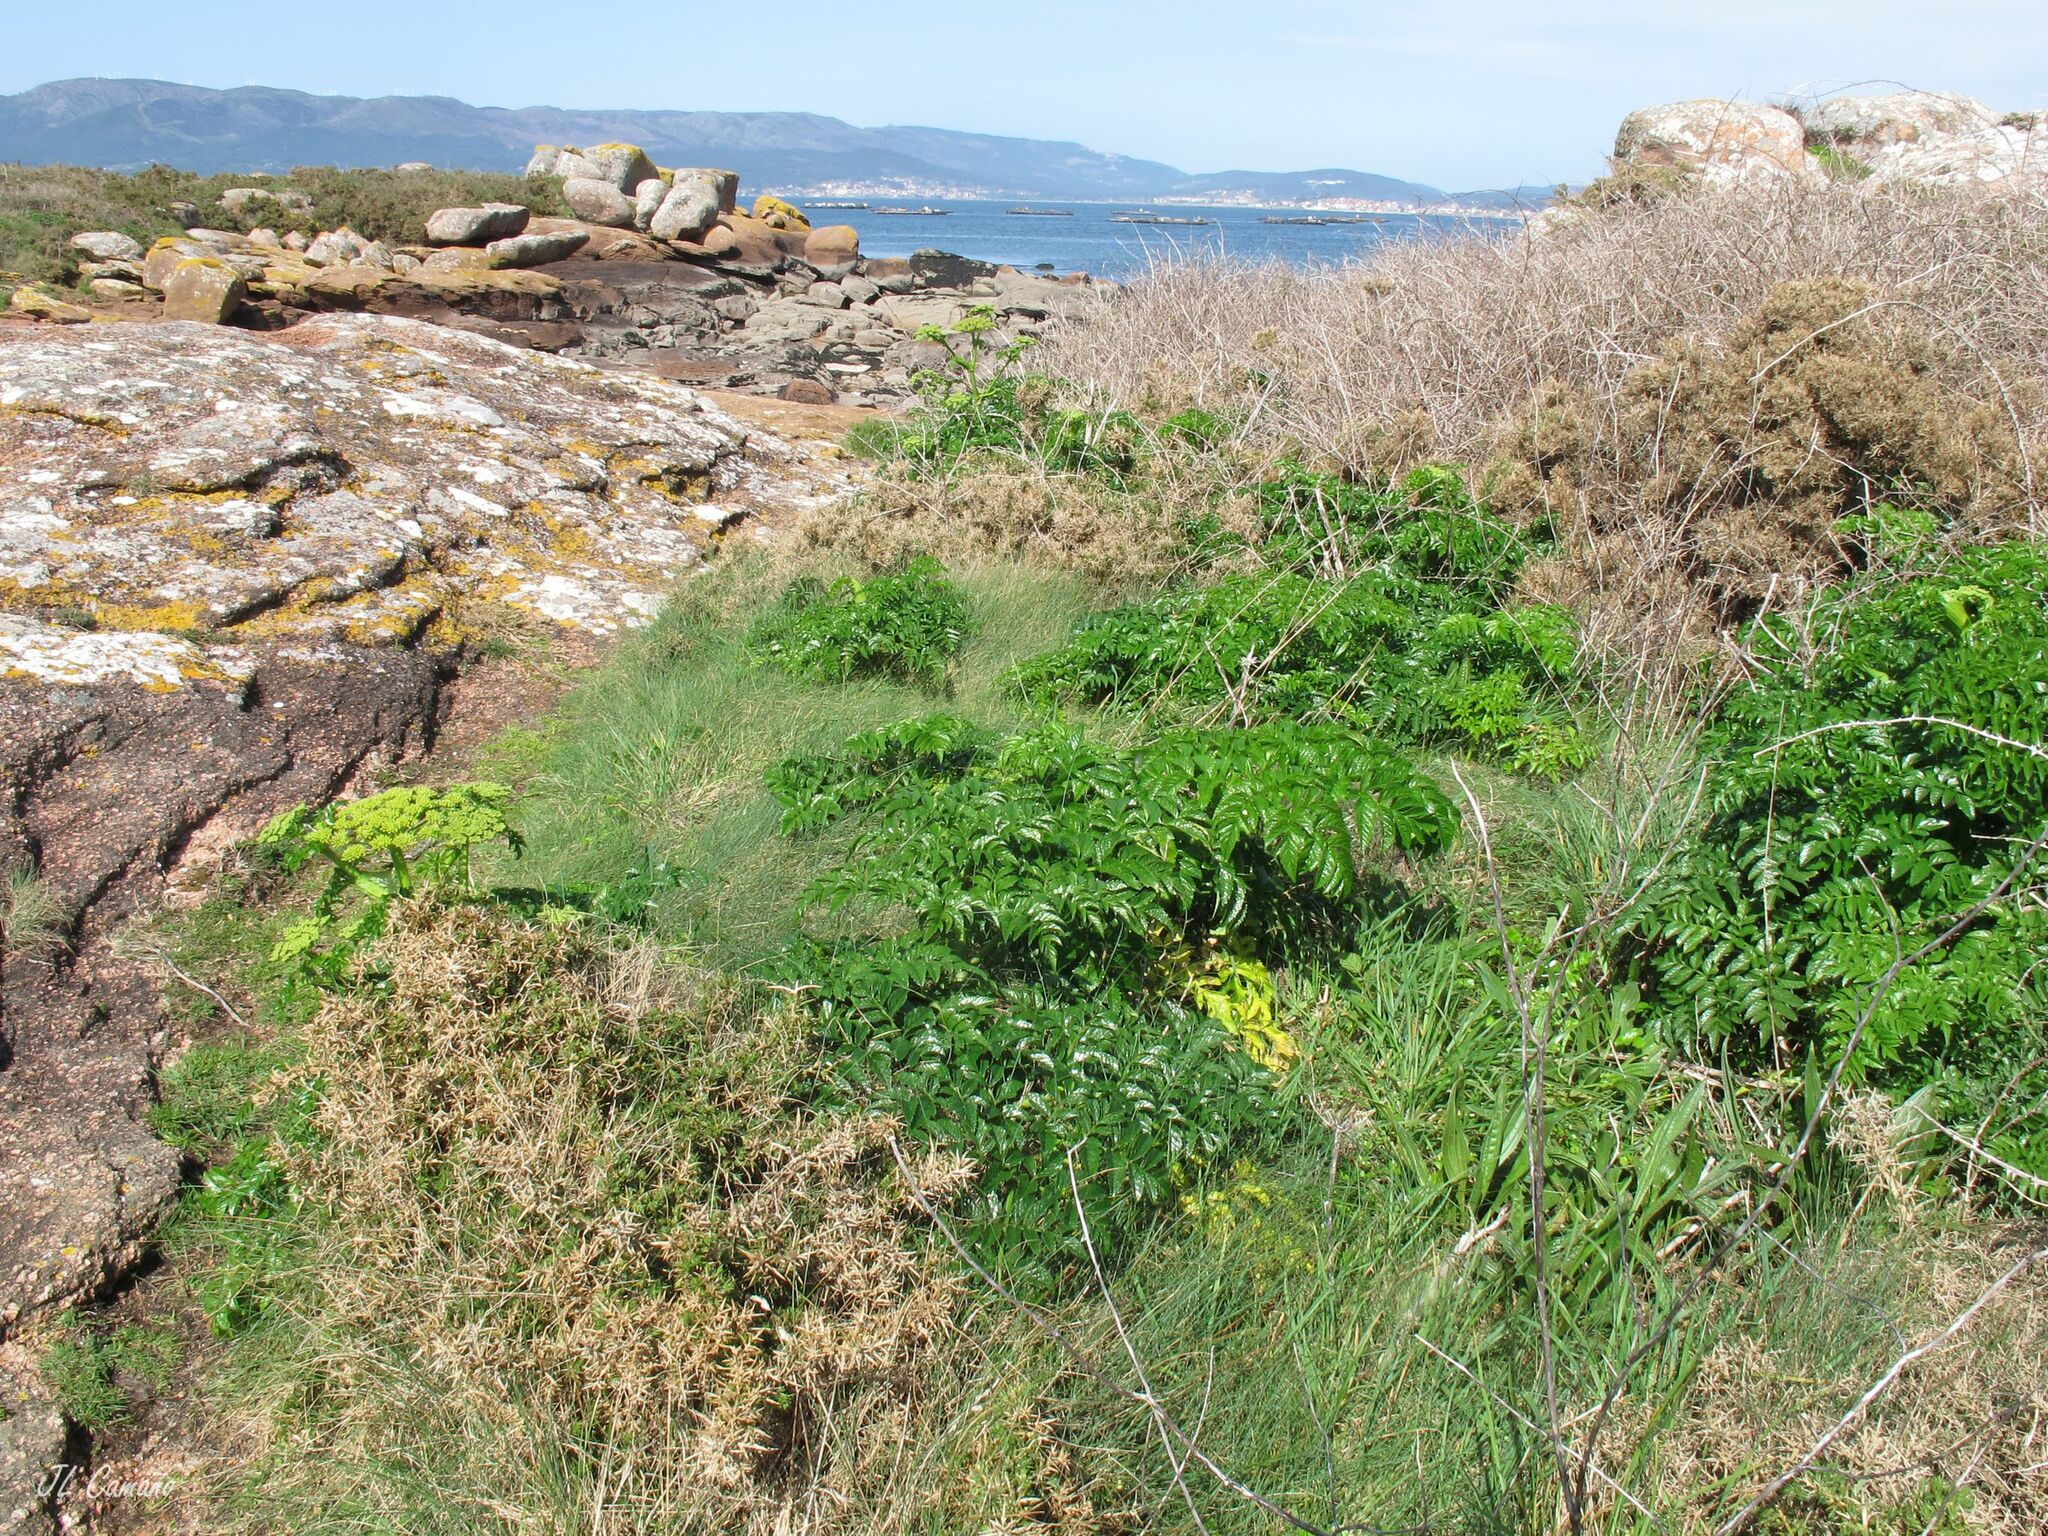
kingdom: Plantae
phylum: Tracheophyta
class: Magnoliopsida
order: Apiales
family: Apiaceae
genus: Angelica
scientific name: Angelica pachycarpa
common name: Portuguese angelica
